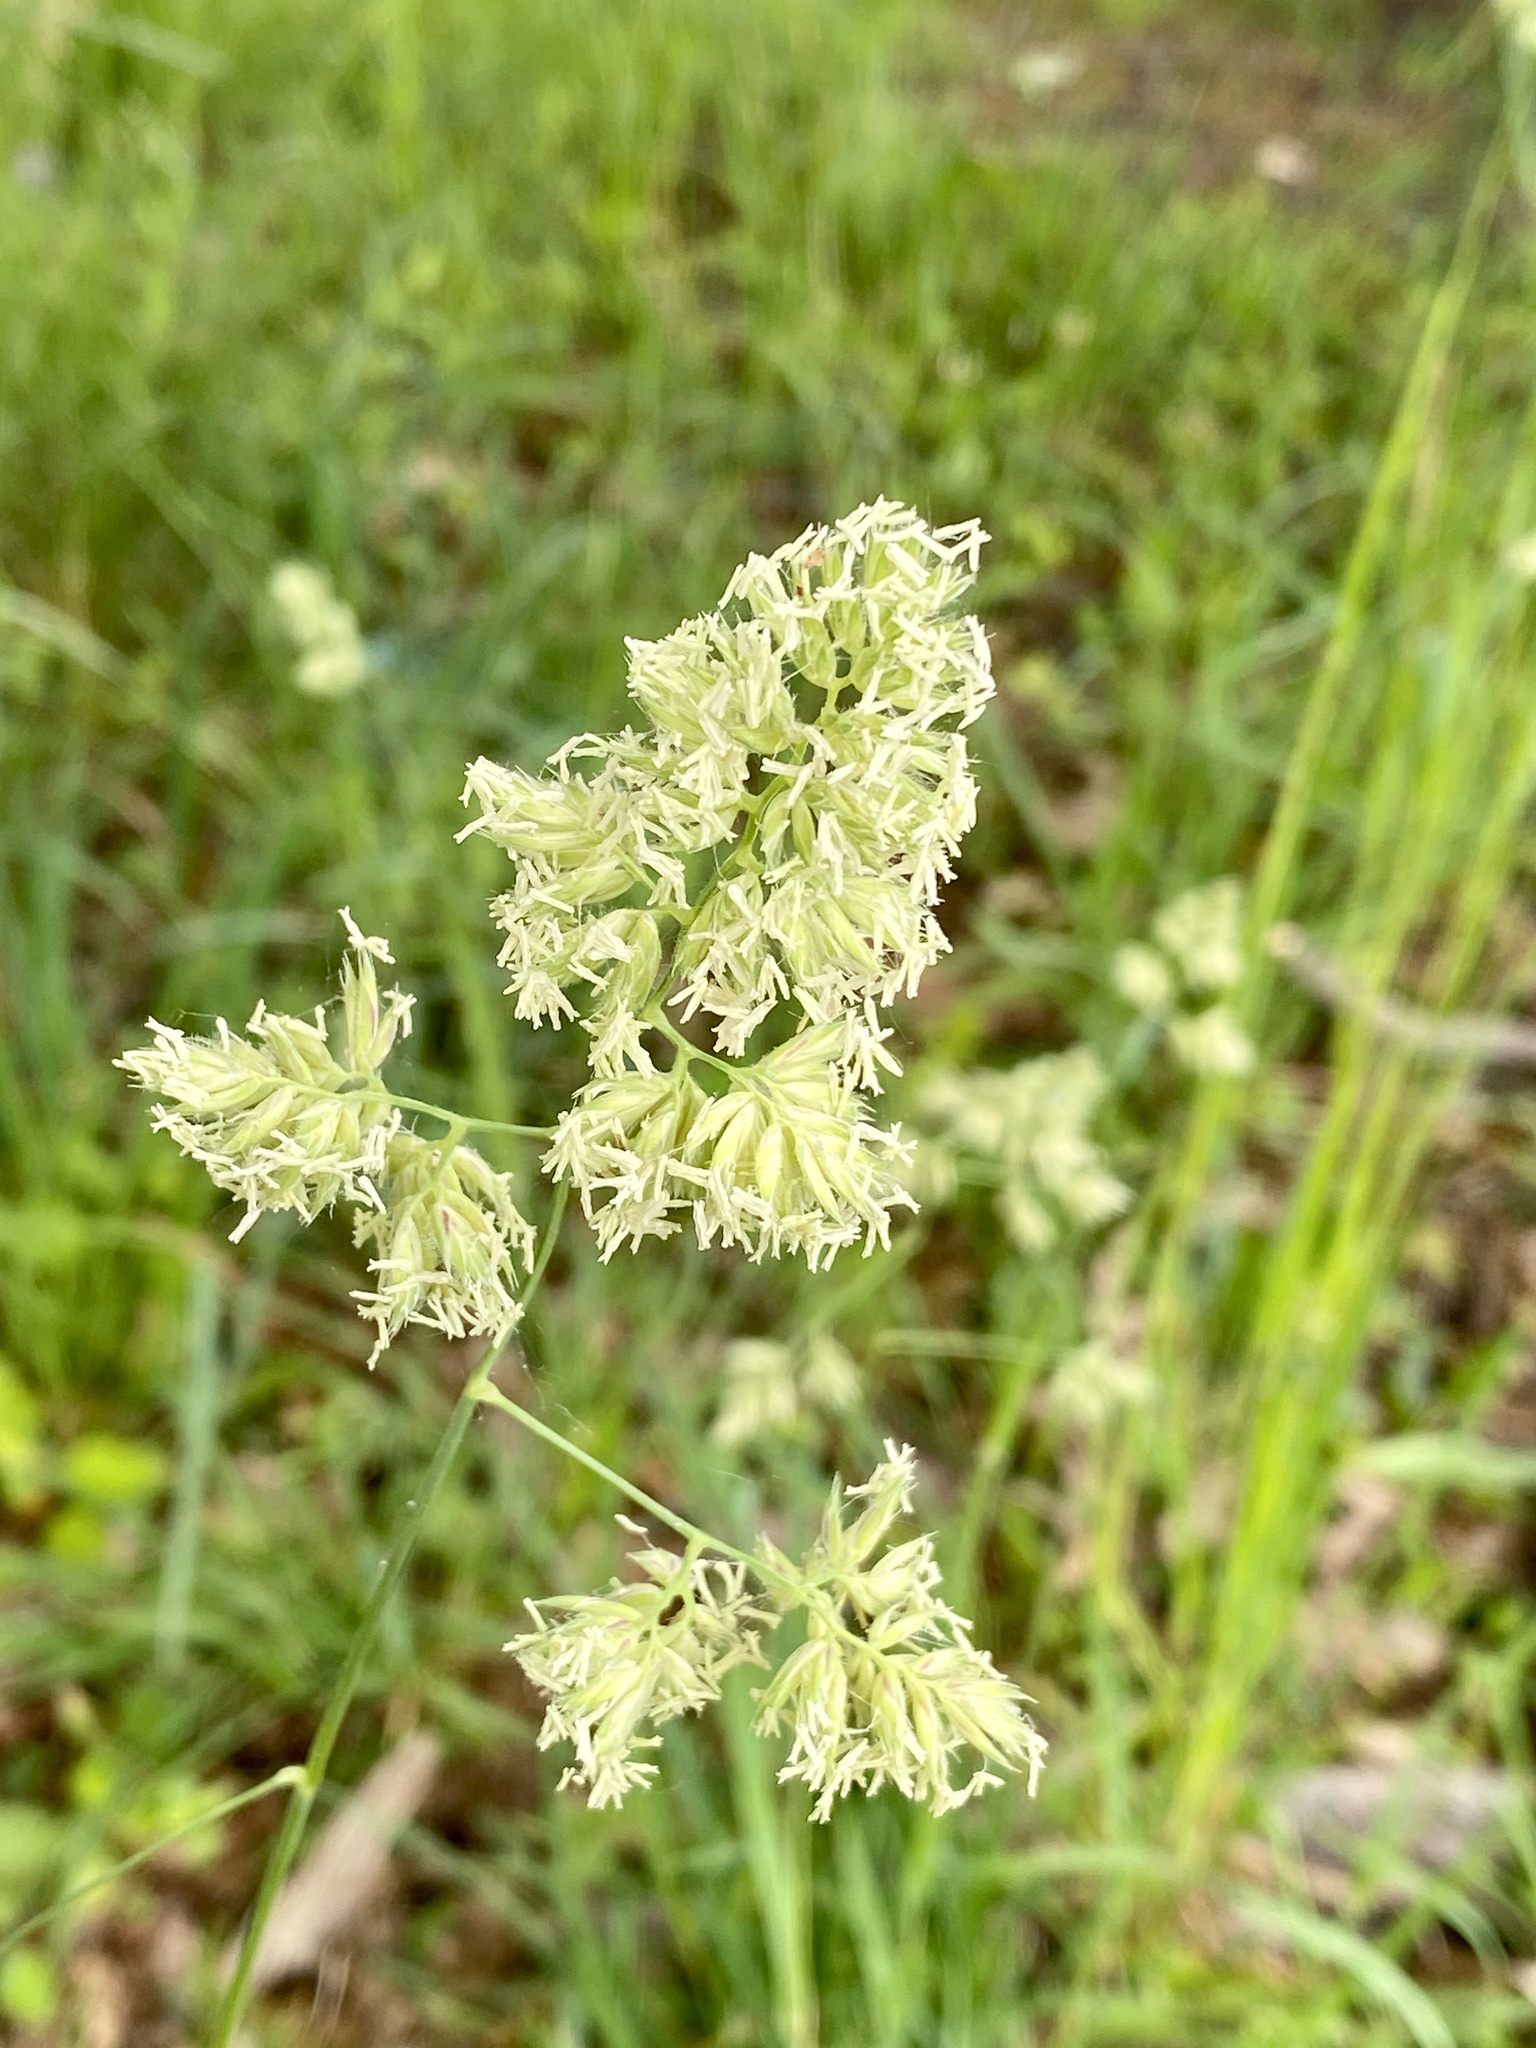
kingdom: Plantae
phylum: Tracheophyta
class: Liliopsida
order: Poales
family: Poaceae
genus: Dactylis
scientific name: Dactylis glomerata
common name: Orchardgrass
